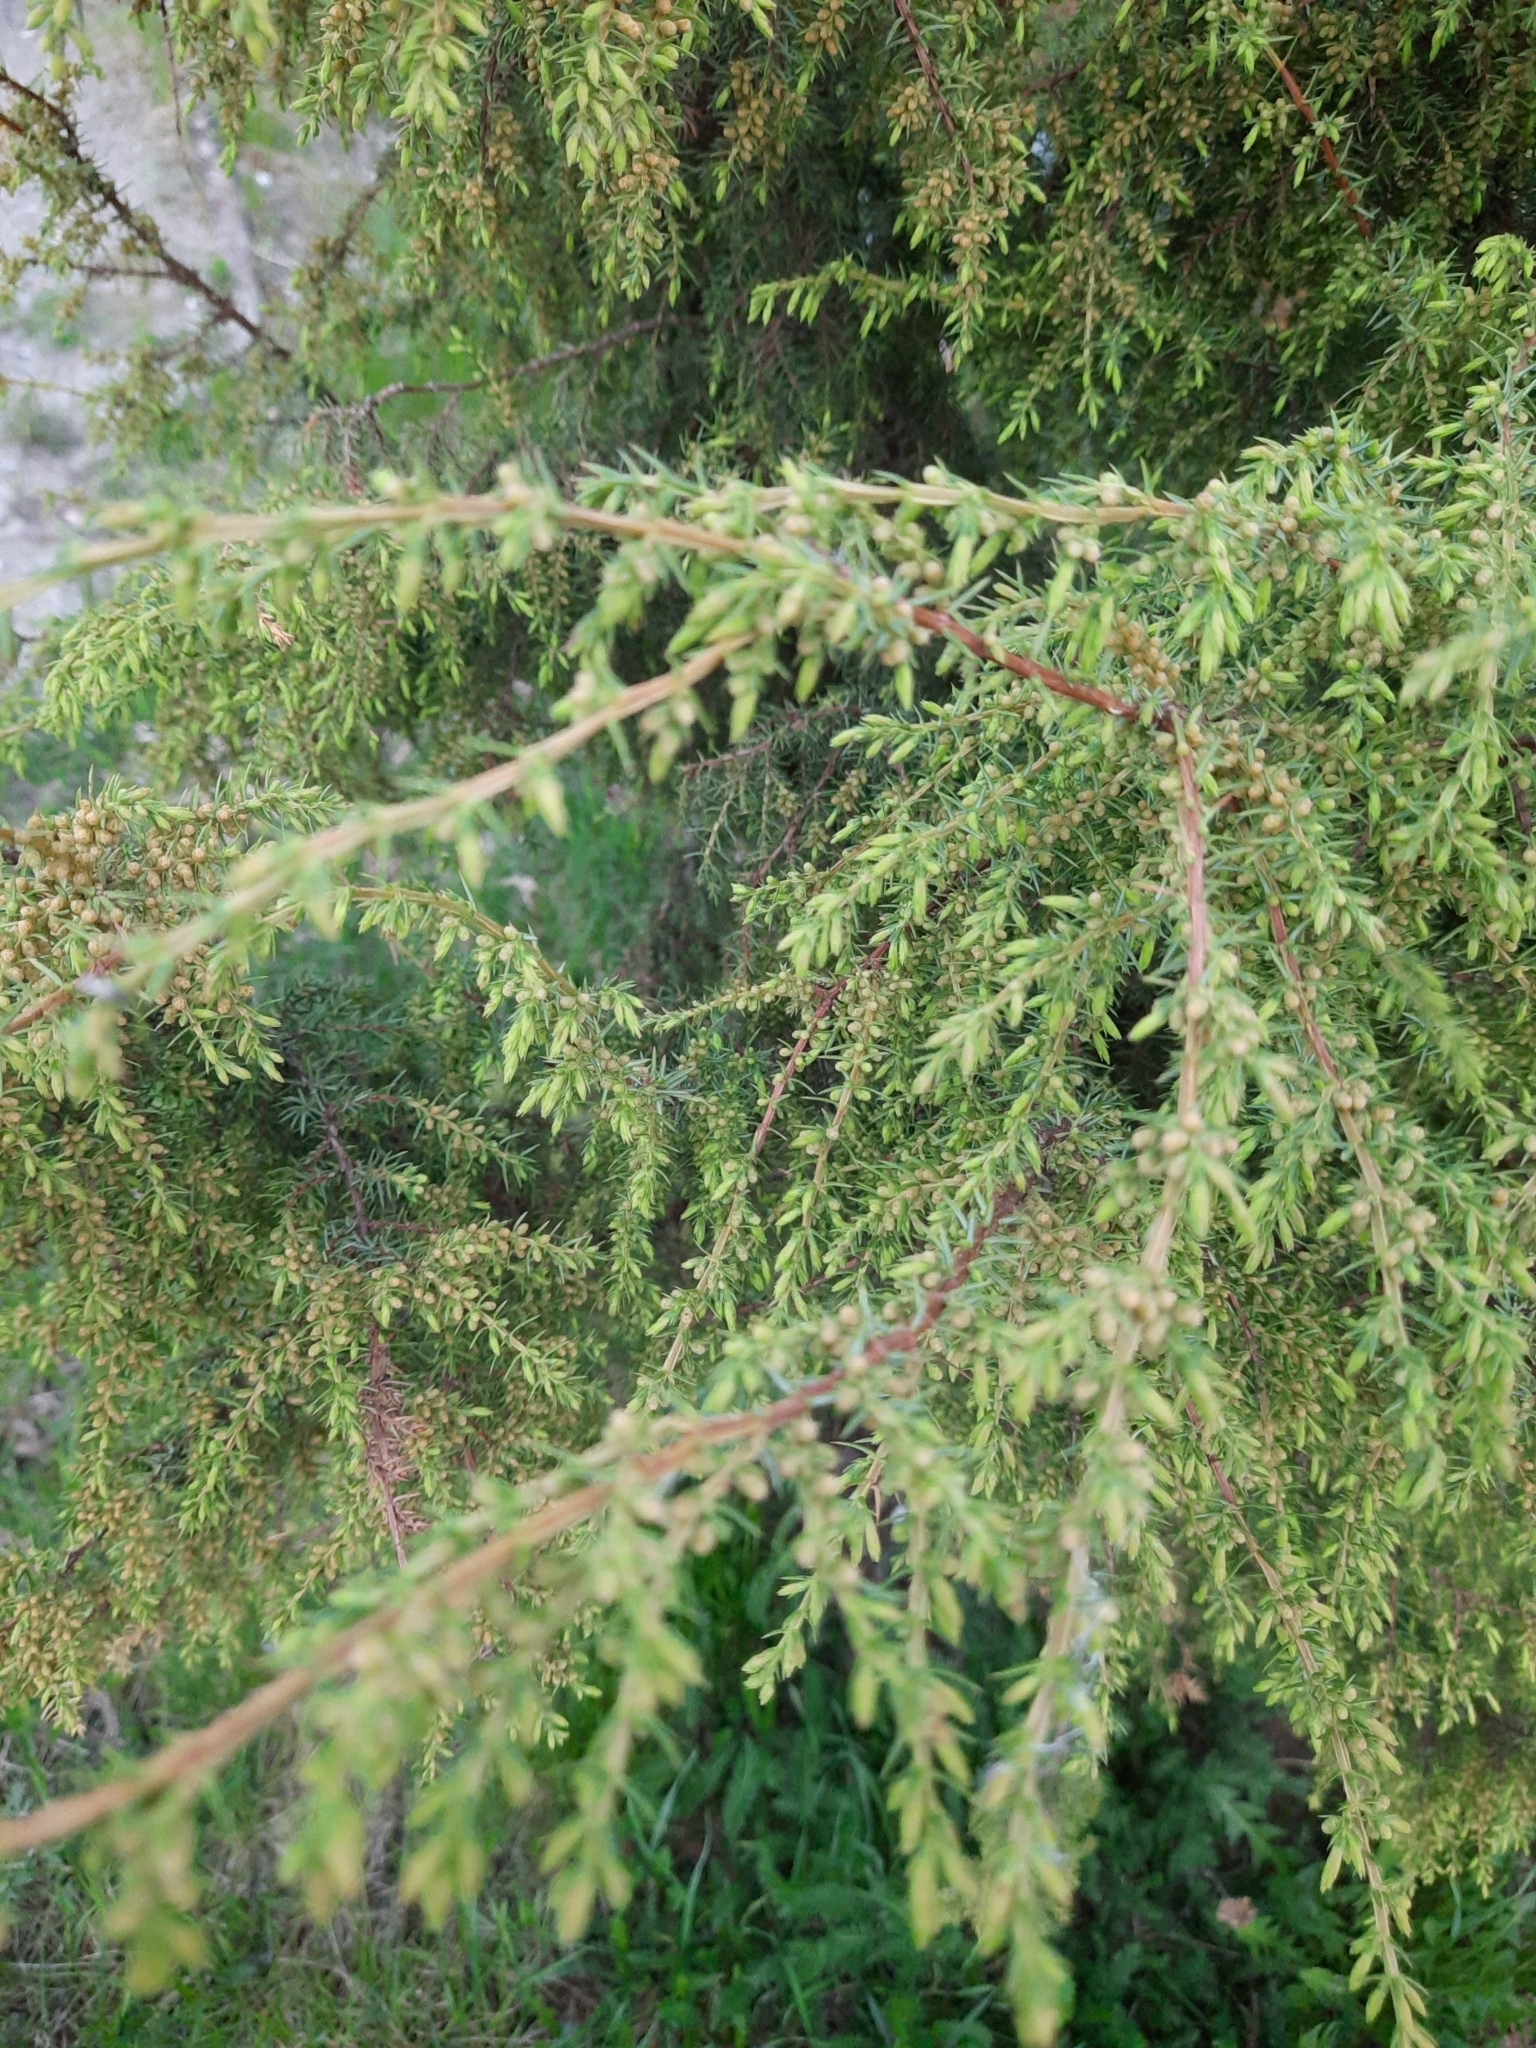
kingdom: Plantae
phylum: Tracheophyta
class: Pinopsida
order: Pinales
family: Cupressaceae
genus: Juniperus
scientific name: Juniperus communis
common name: Common juniper
